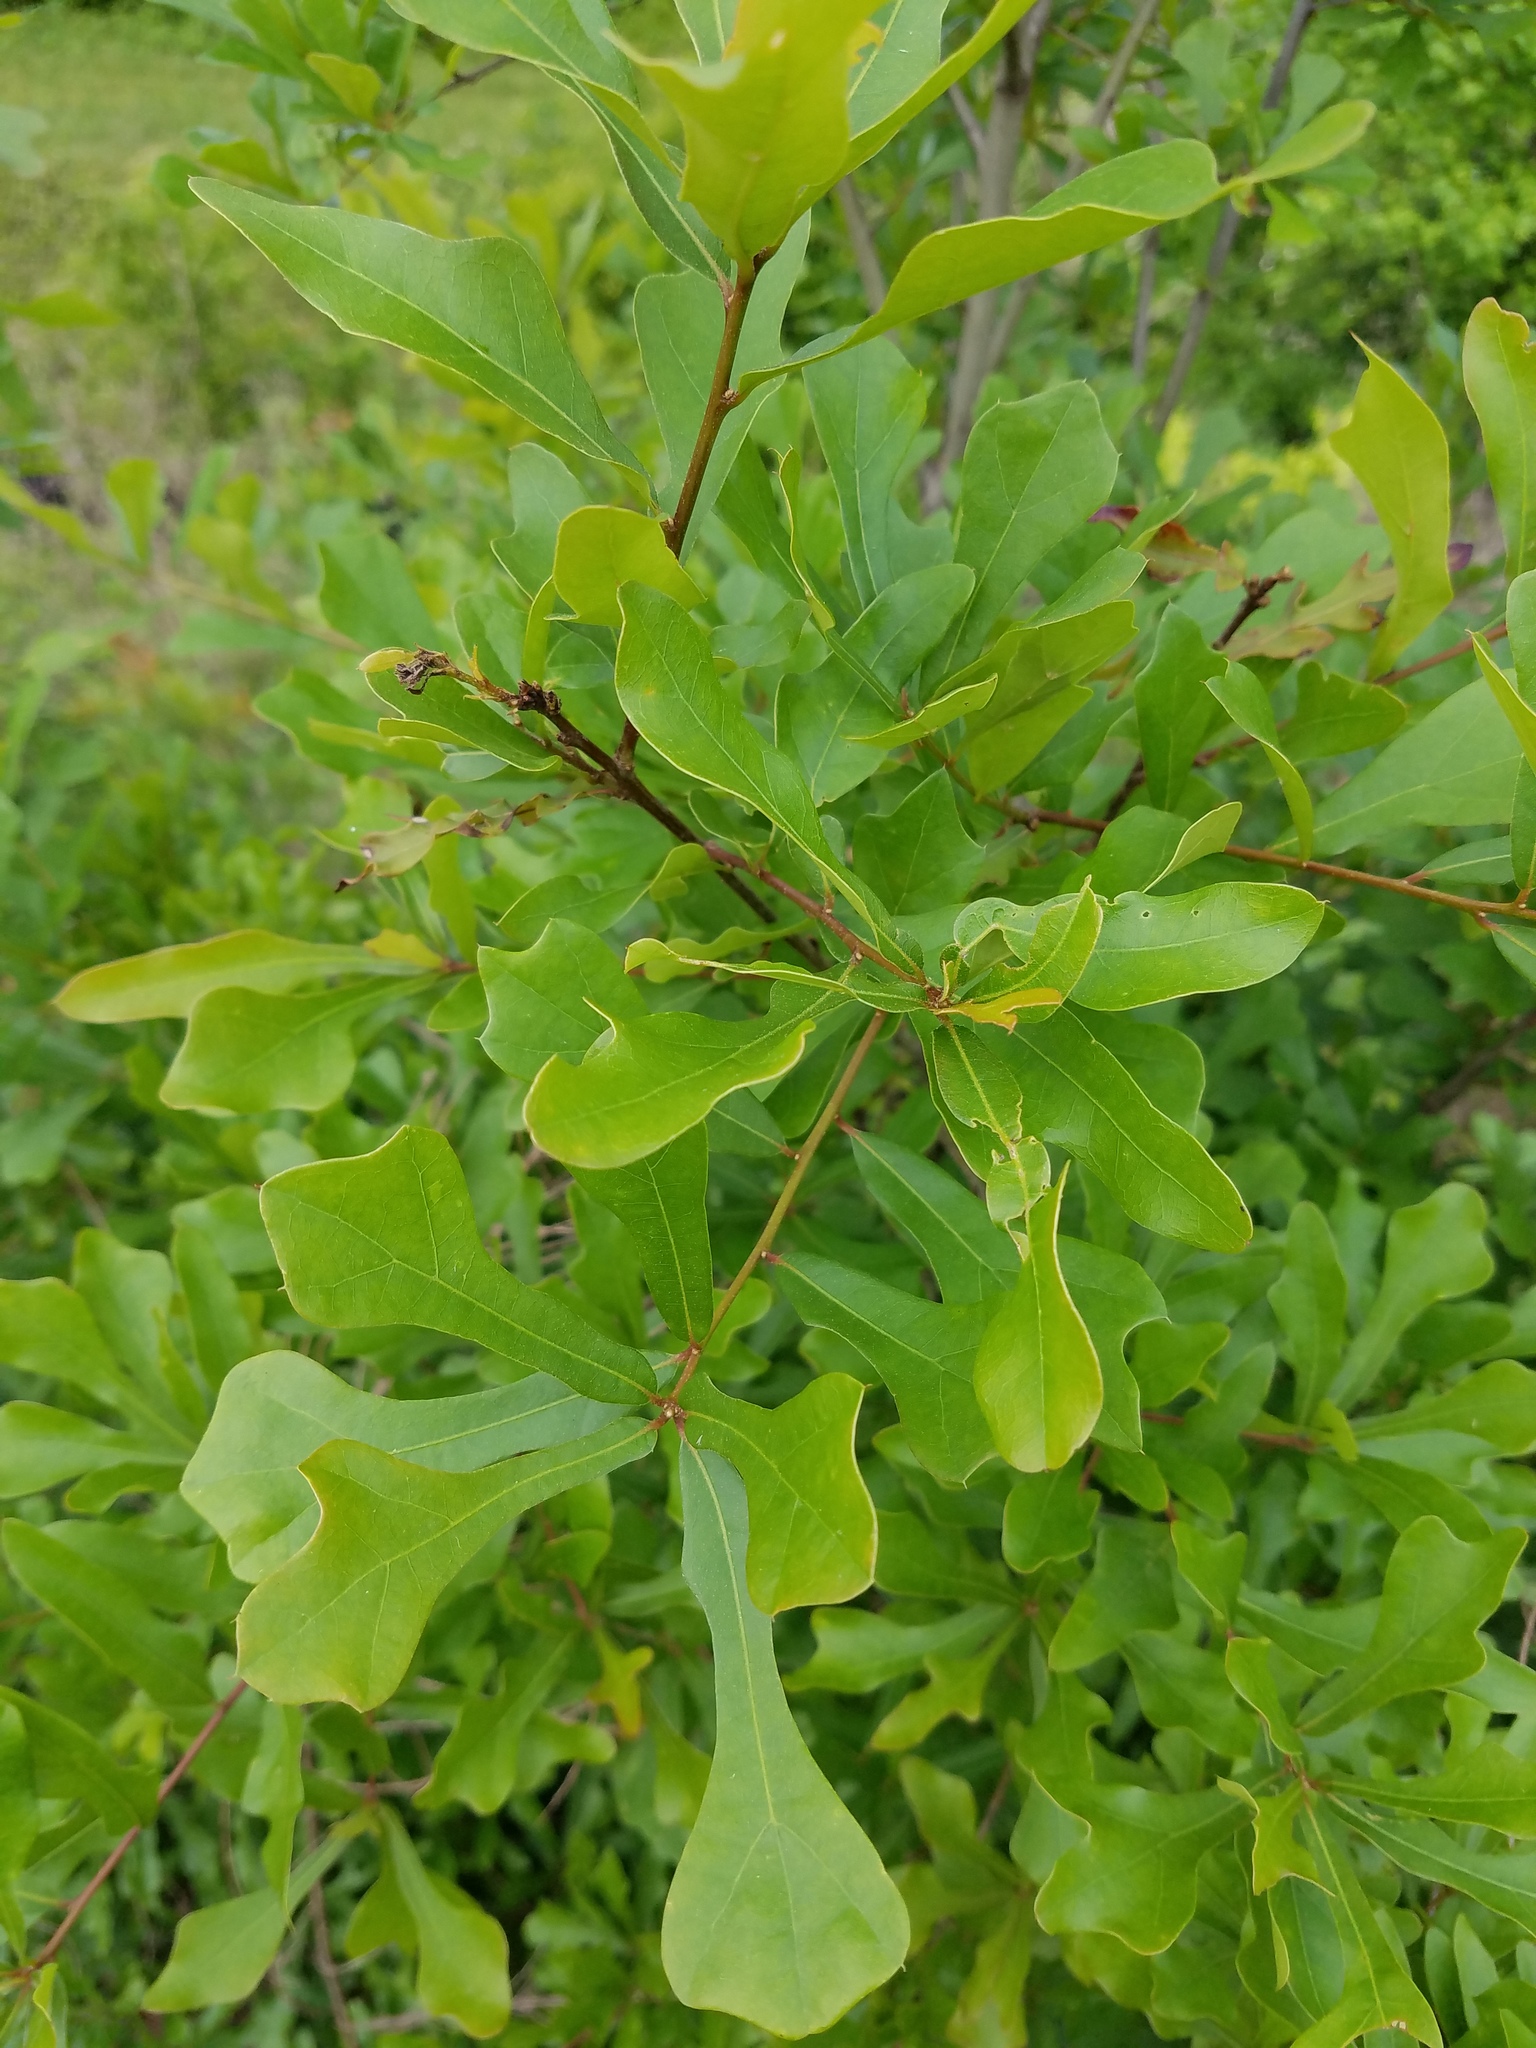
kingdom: Plantae
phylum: Tracheophyta
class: Magnoliopsida
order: Fagales
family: Fagaceae
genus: Quercus
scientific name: Quercus nigra
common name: Water oak
